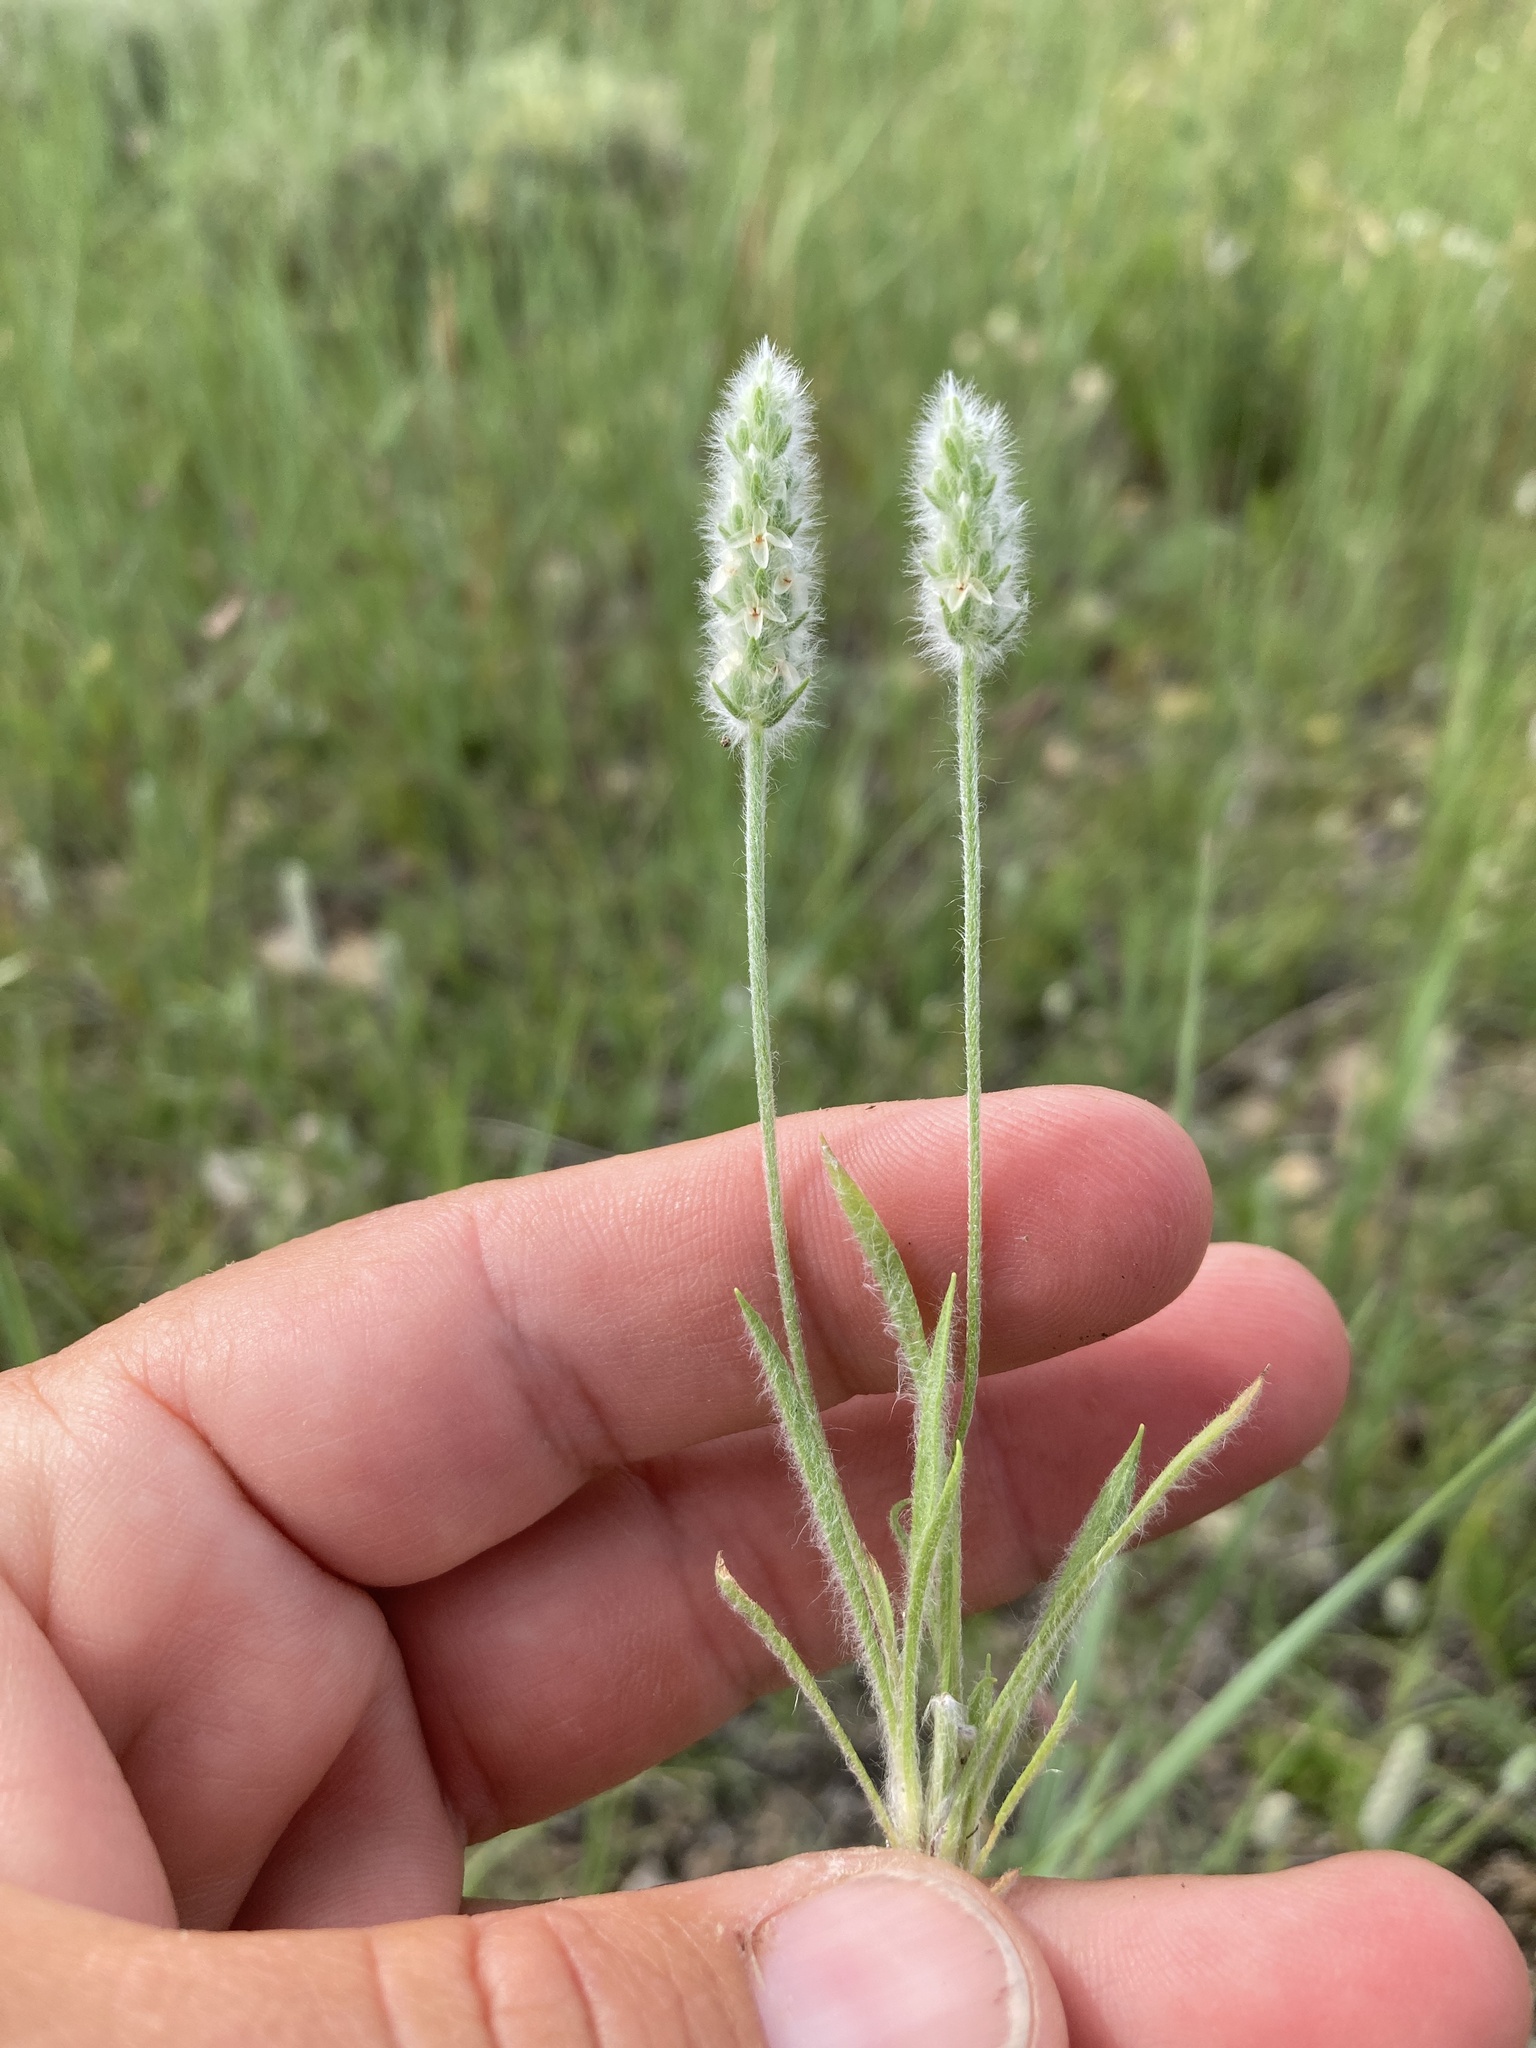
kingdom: Plantae
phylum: Tracheophyta
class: Magnoliopsida
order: Lamiales
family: Plantaginaceae
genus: Plantago
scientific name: Plantago patagonica
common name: Patagonia indian-wheat
